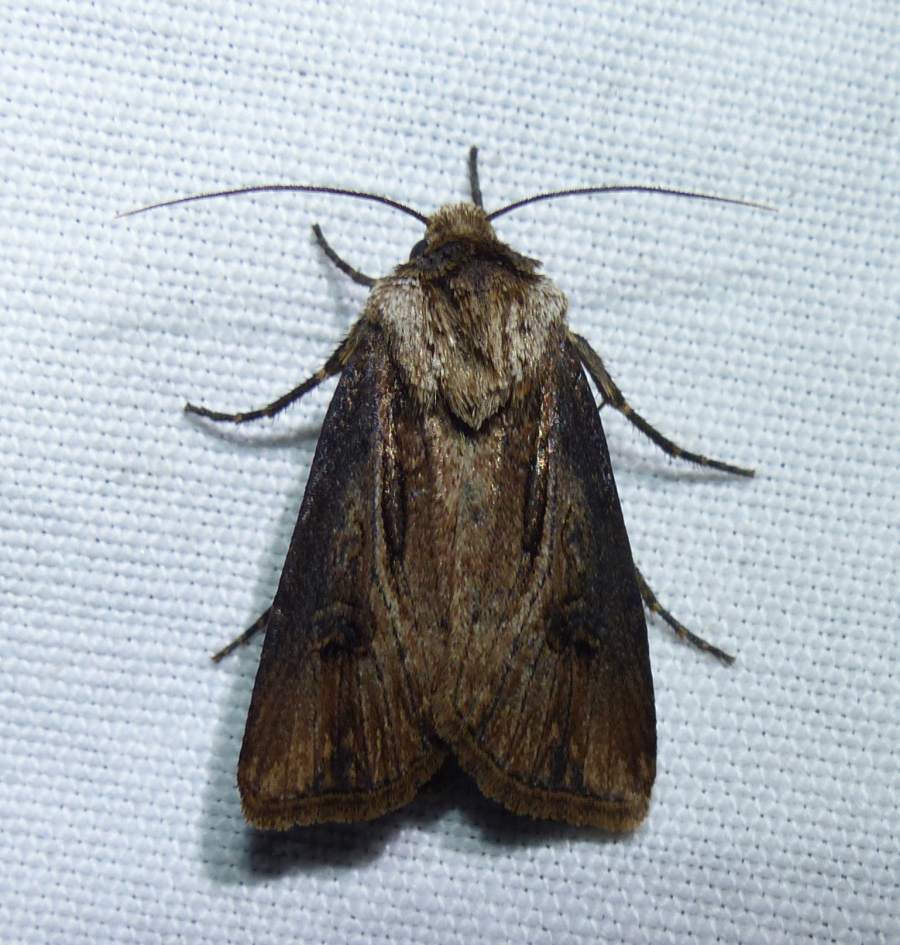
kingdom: Animalia
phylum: Arthropoda
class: Insecta
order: Lepidoptera
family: Noctuidae
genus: Agrotis
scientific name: Agrotis venerabilis
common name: Venerable dart
